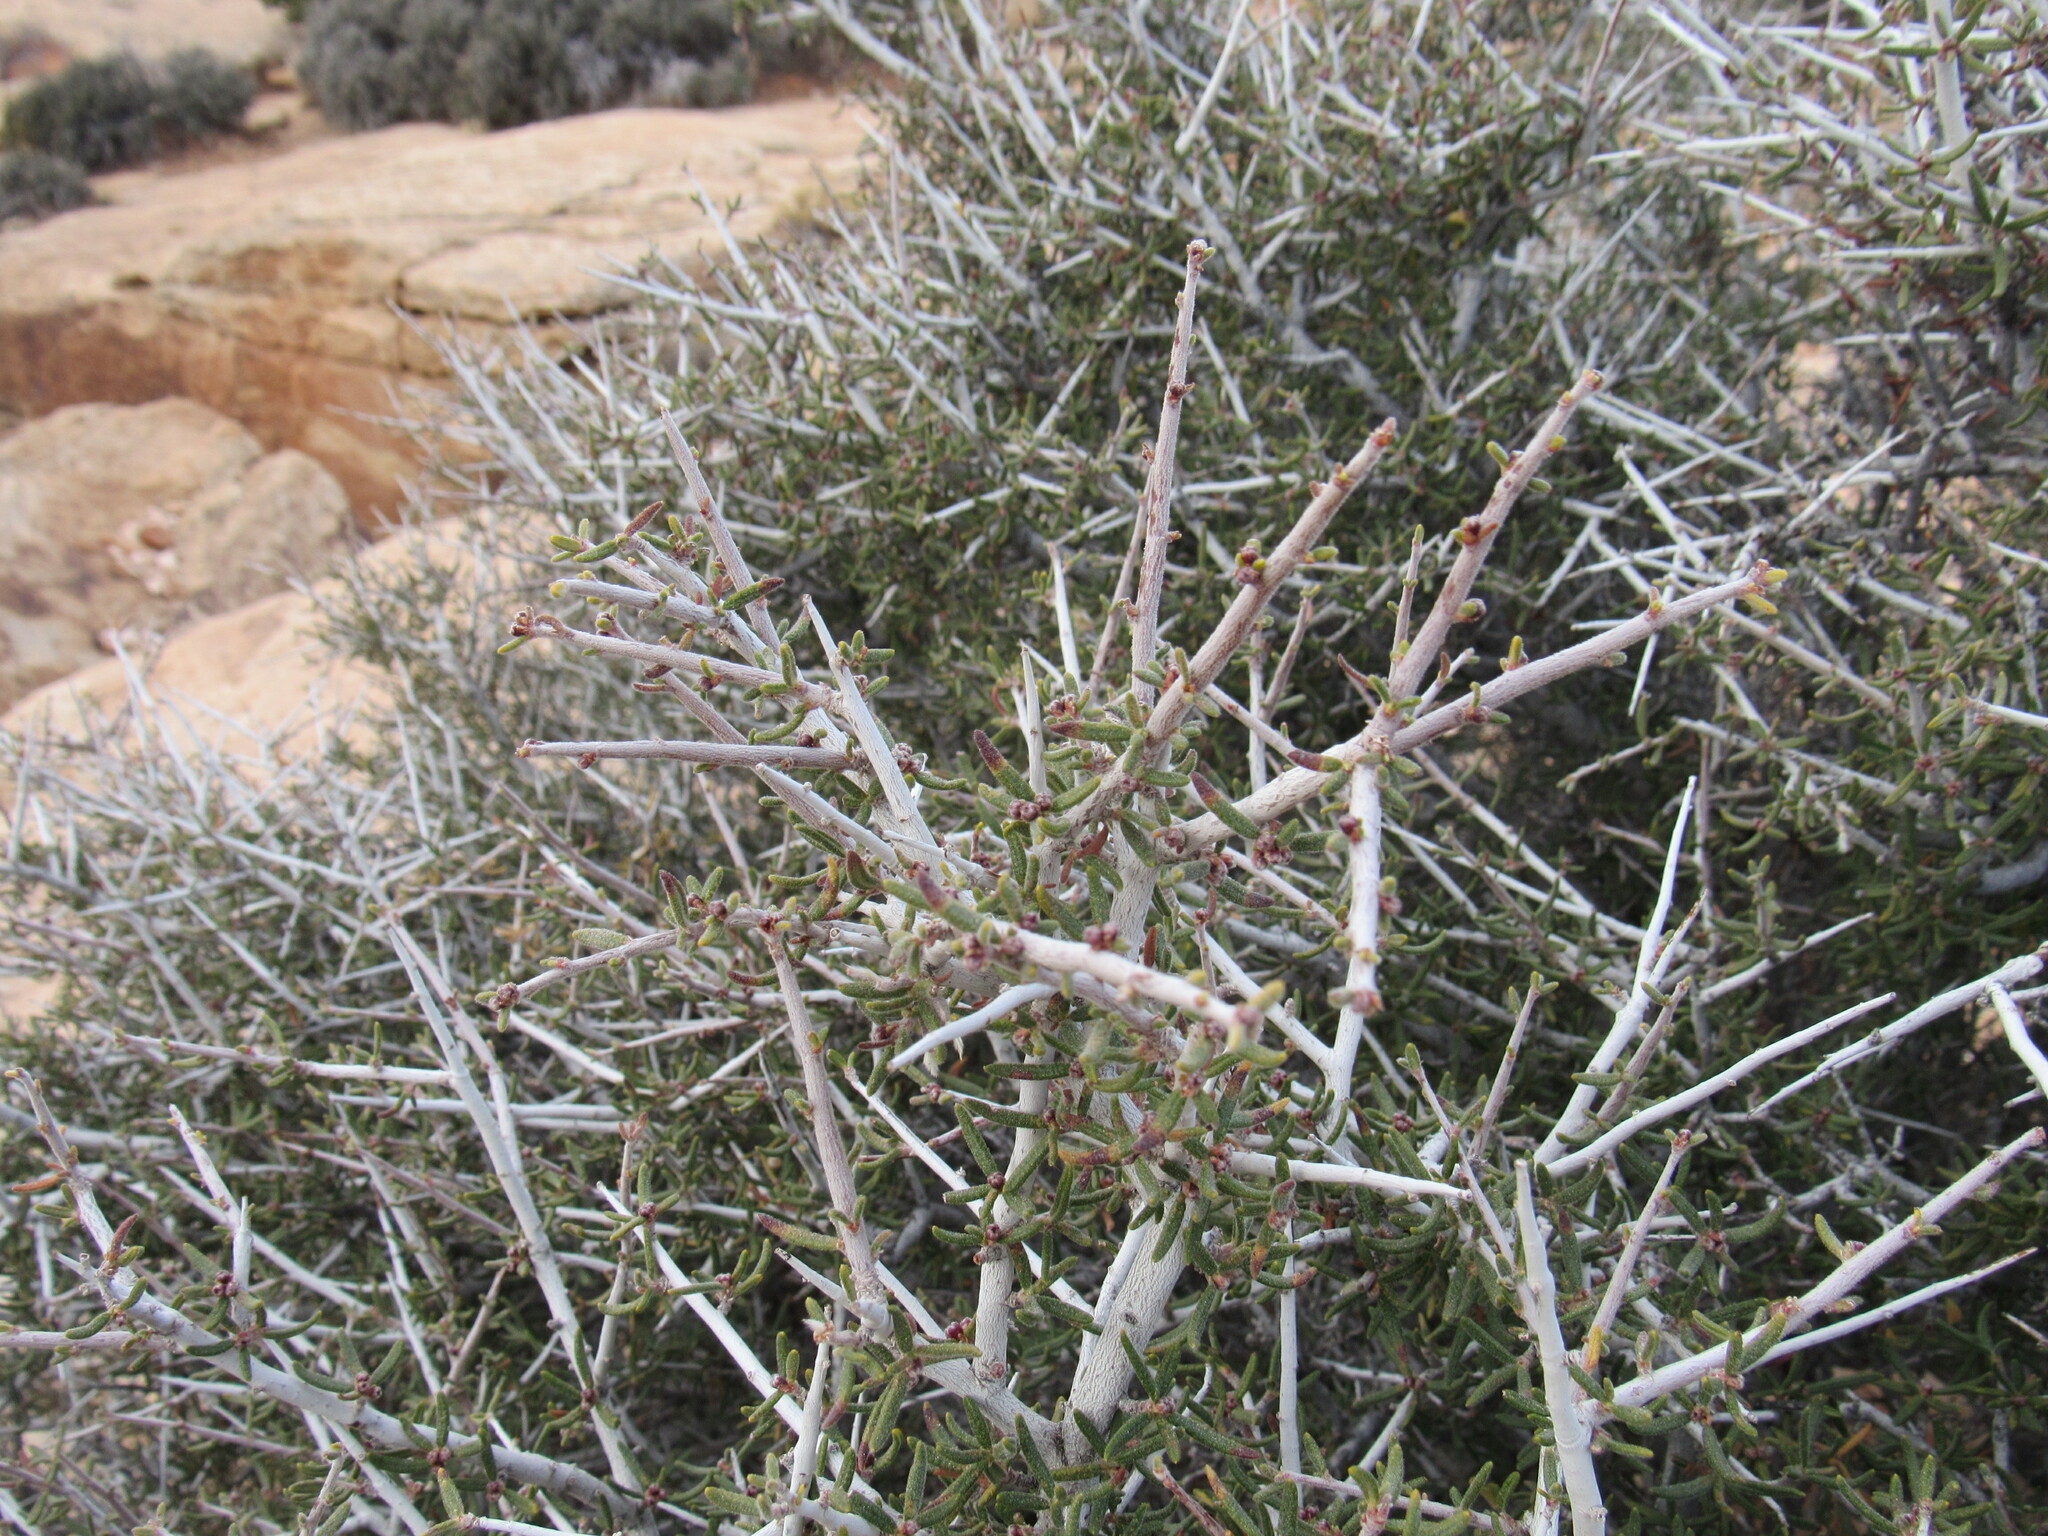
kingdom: Plantae
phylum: Tracheophyta
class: Magnoliopsida
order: Rosales
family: Rosaceae
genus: Cercocarpus
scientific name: Cercocarpus intricatus
